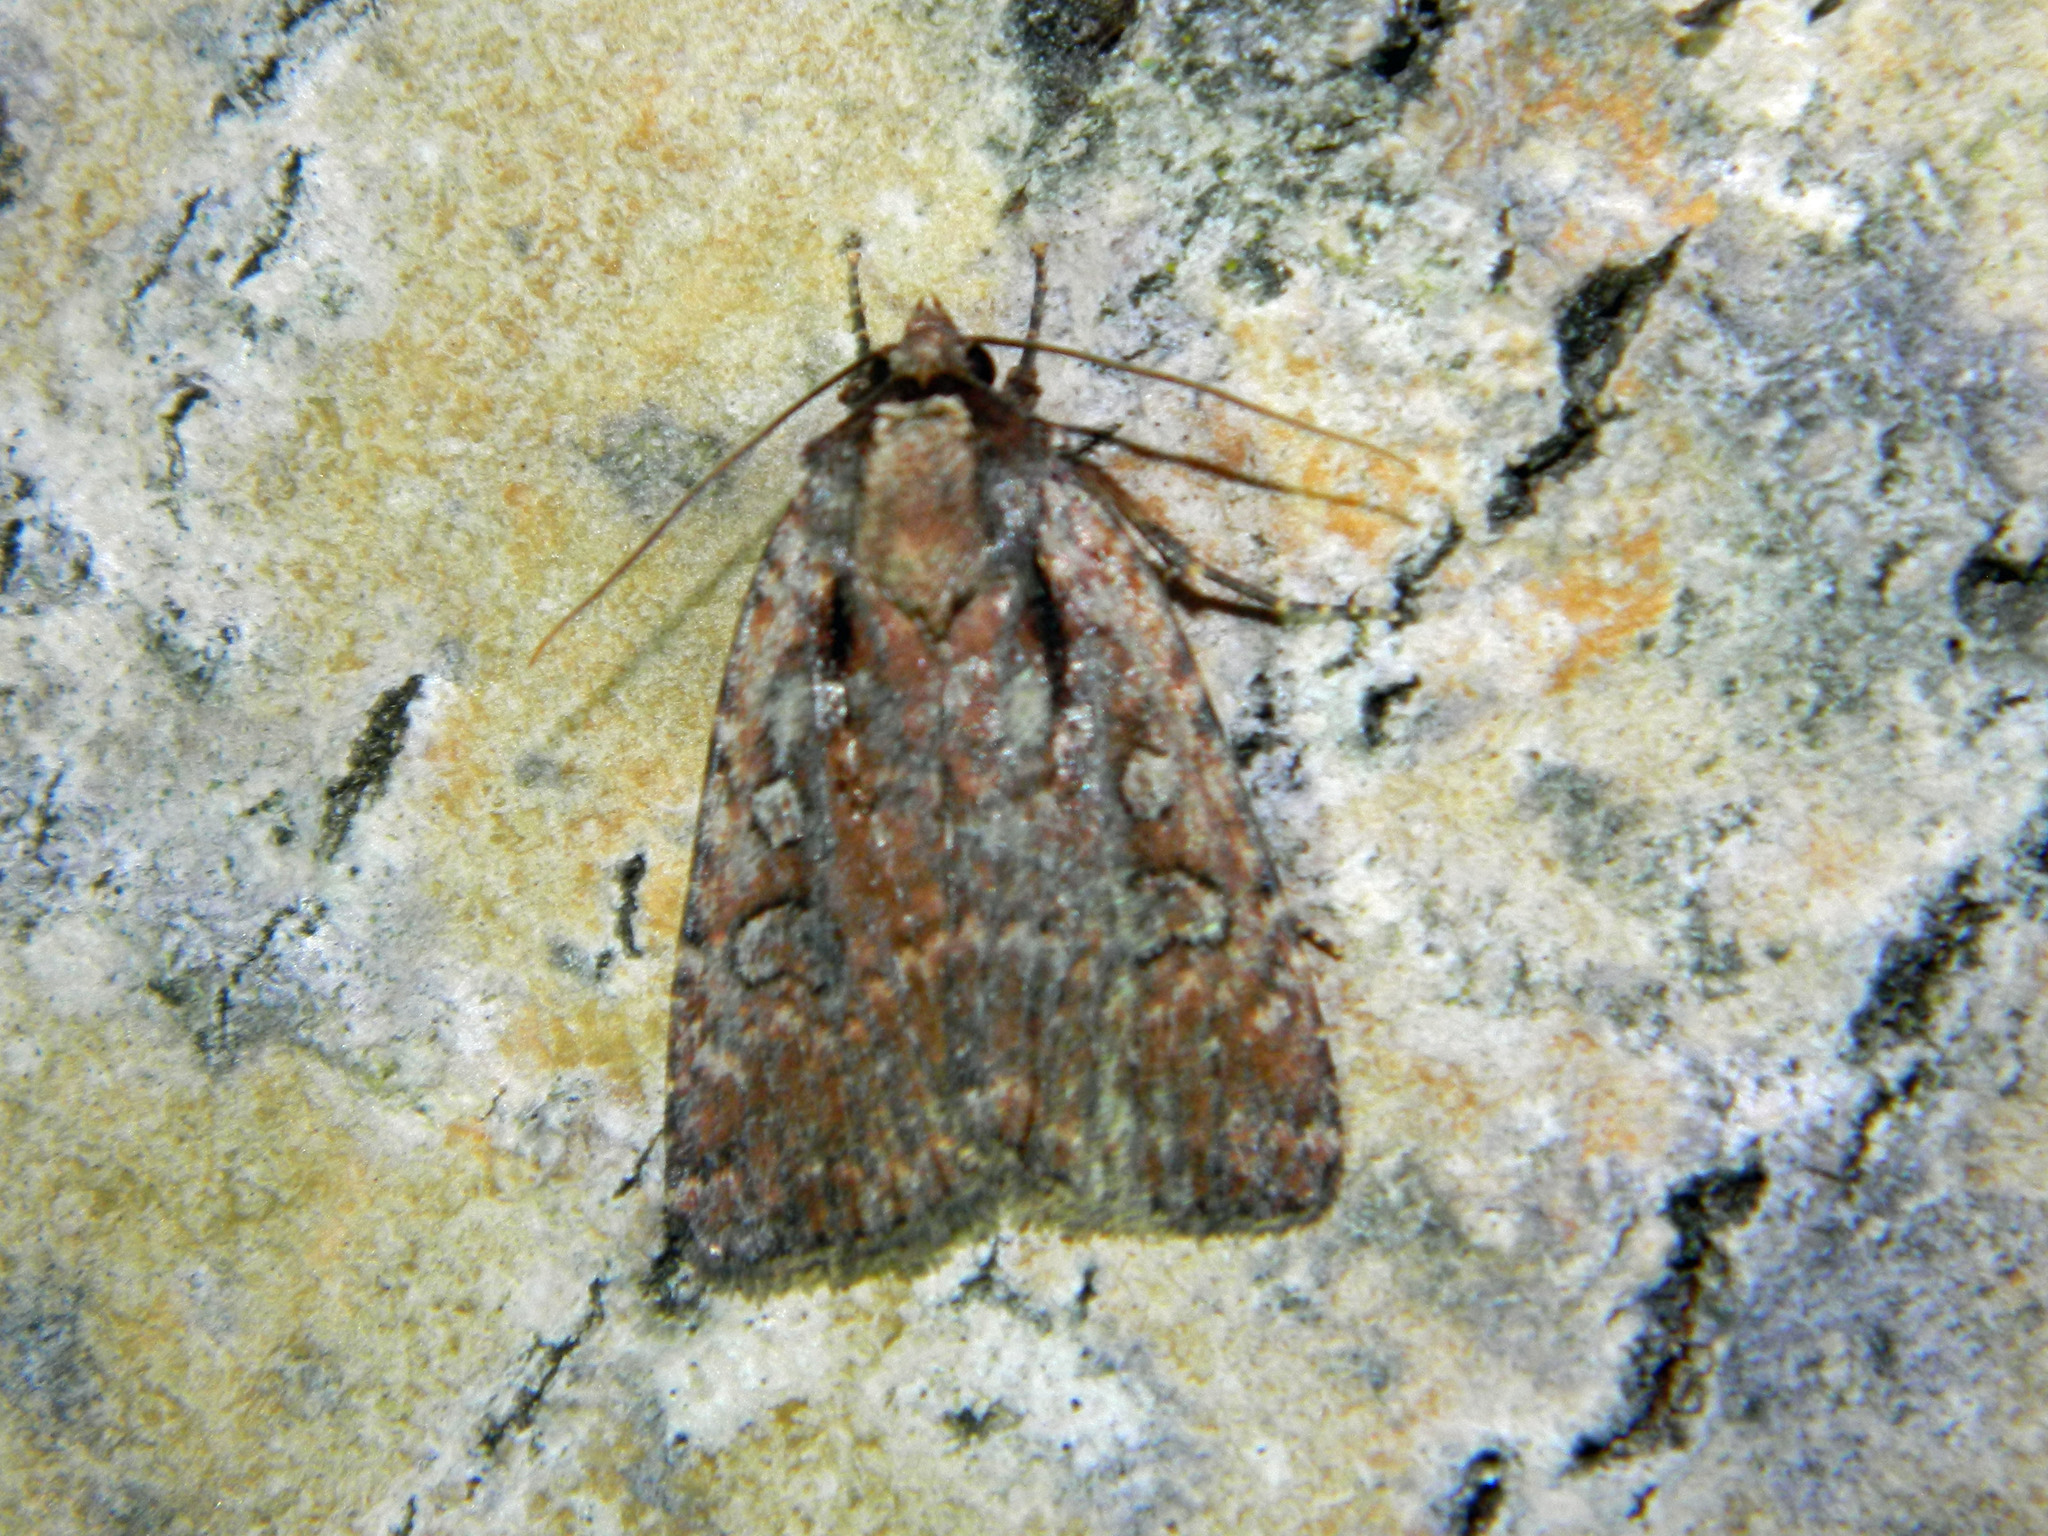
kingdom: Animalia
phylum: Arthropoda
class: Insecta
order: Lepidoptera
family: Noctuidae
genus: Eueretagrotis
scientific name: Eueretagrotis attentus
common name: Attentive dart
